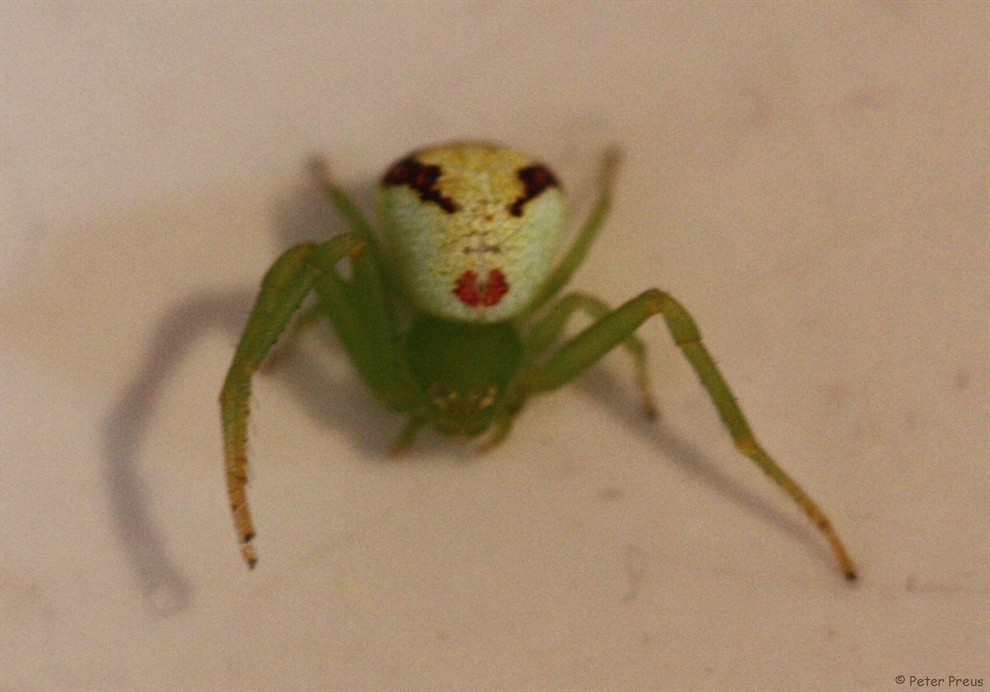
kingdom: Animalia
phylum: Arthropoda
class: Arachnida
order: Araneae
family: Thomisidae
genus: Ebrechtella
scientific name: Ebrechtella tricuspidata
